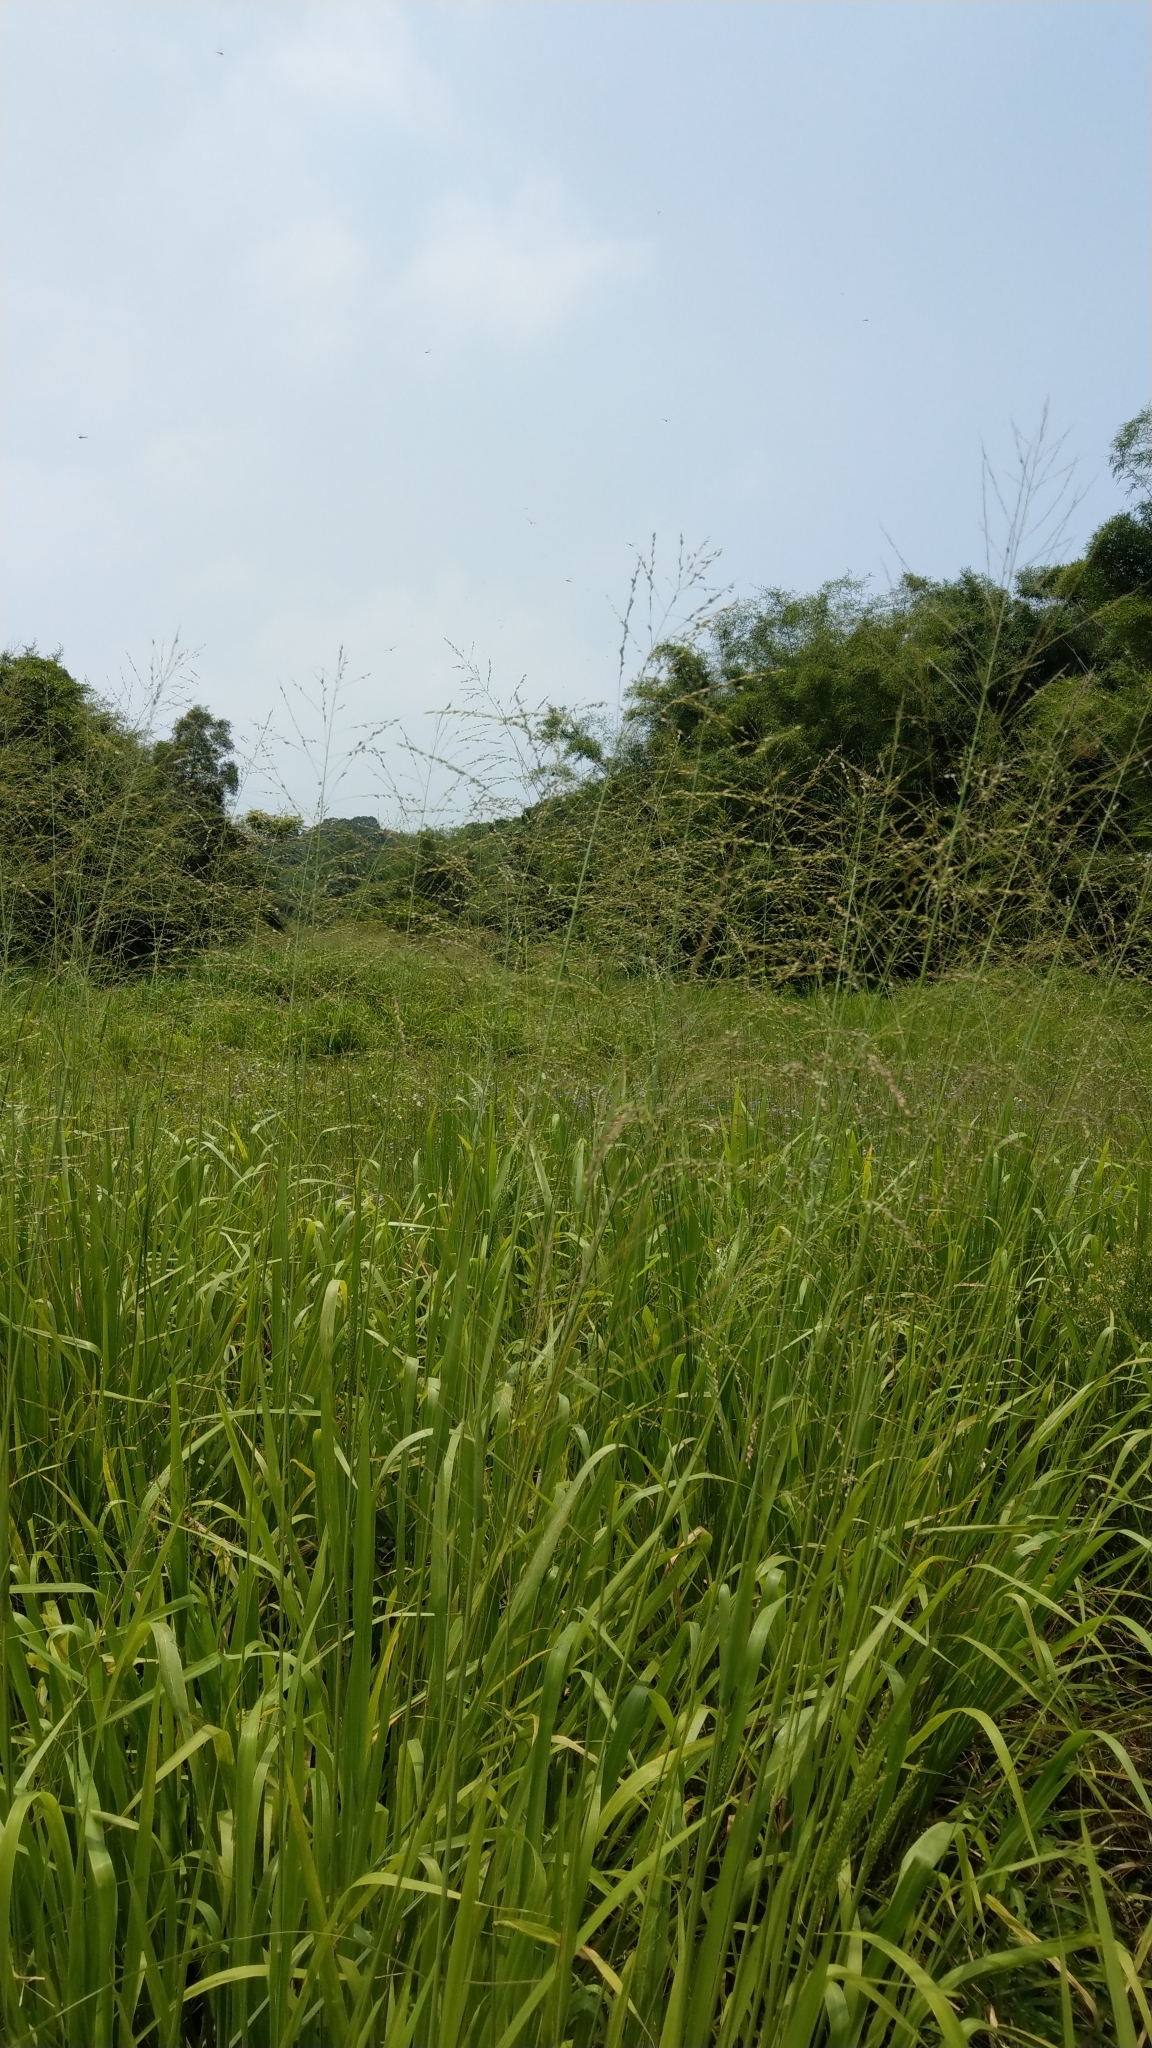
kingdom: Plantae
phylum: Tracheophyta
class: Liliopsida
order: Poales
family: Poaceae
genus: Megathyrsus
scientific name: Megathyrsus maximus
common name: Guineagrass
